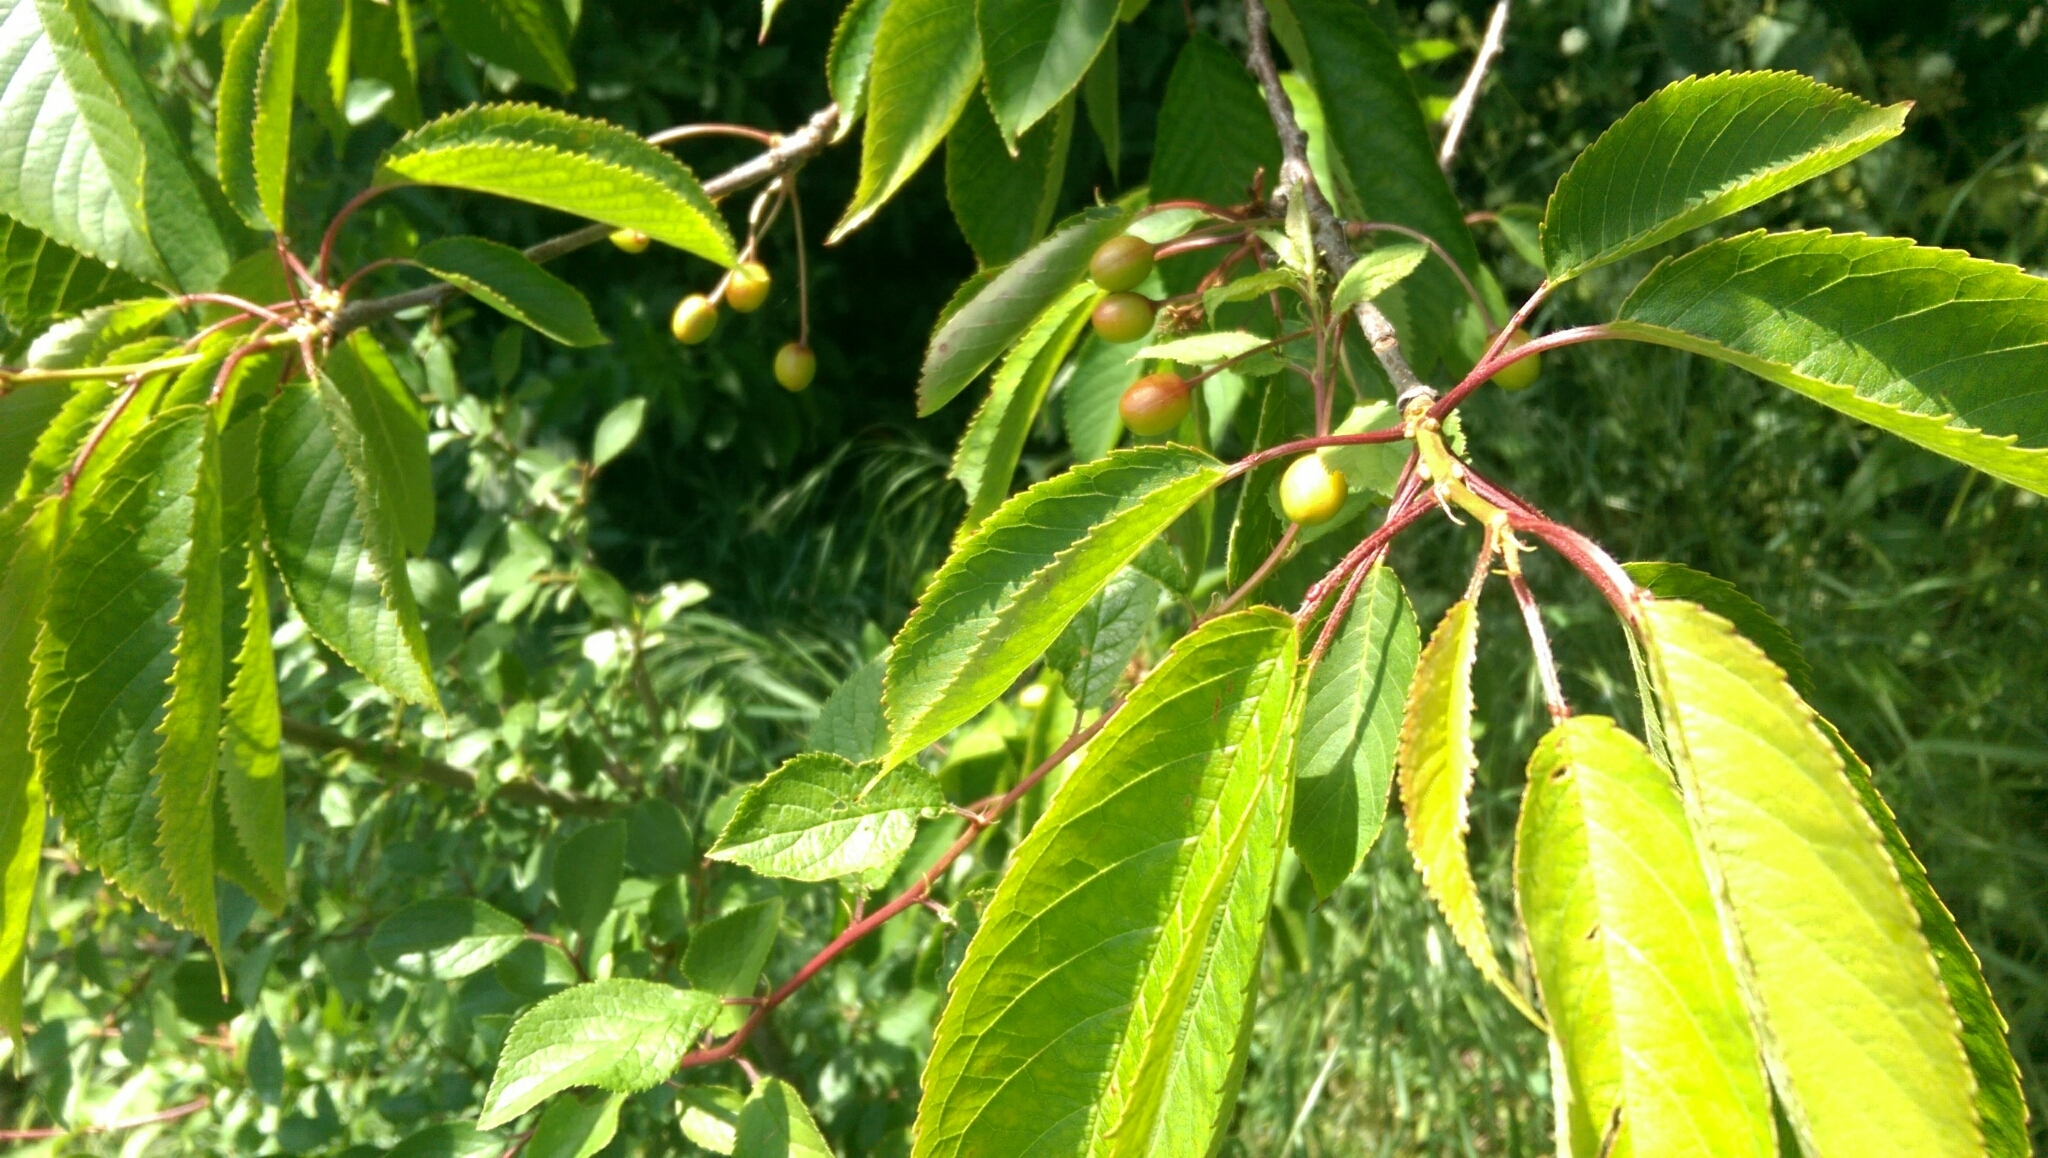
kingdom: Plantae
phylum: Tracheophyta
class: Magnoliopsida
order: Rosales
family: Rosaceae
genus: Prunus
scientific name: Prunus avium
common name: Sweet cherry
